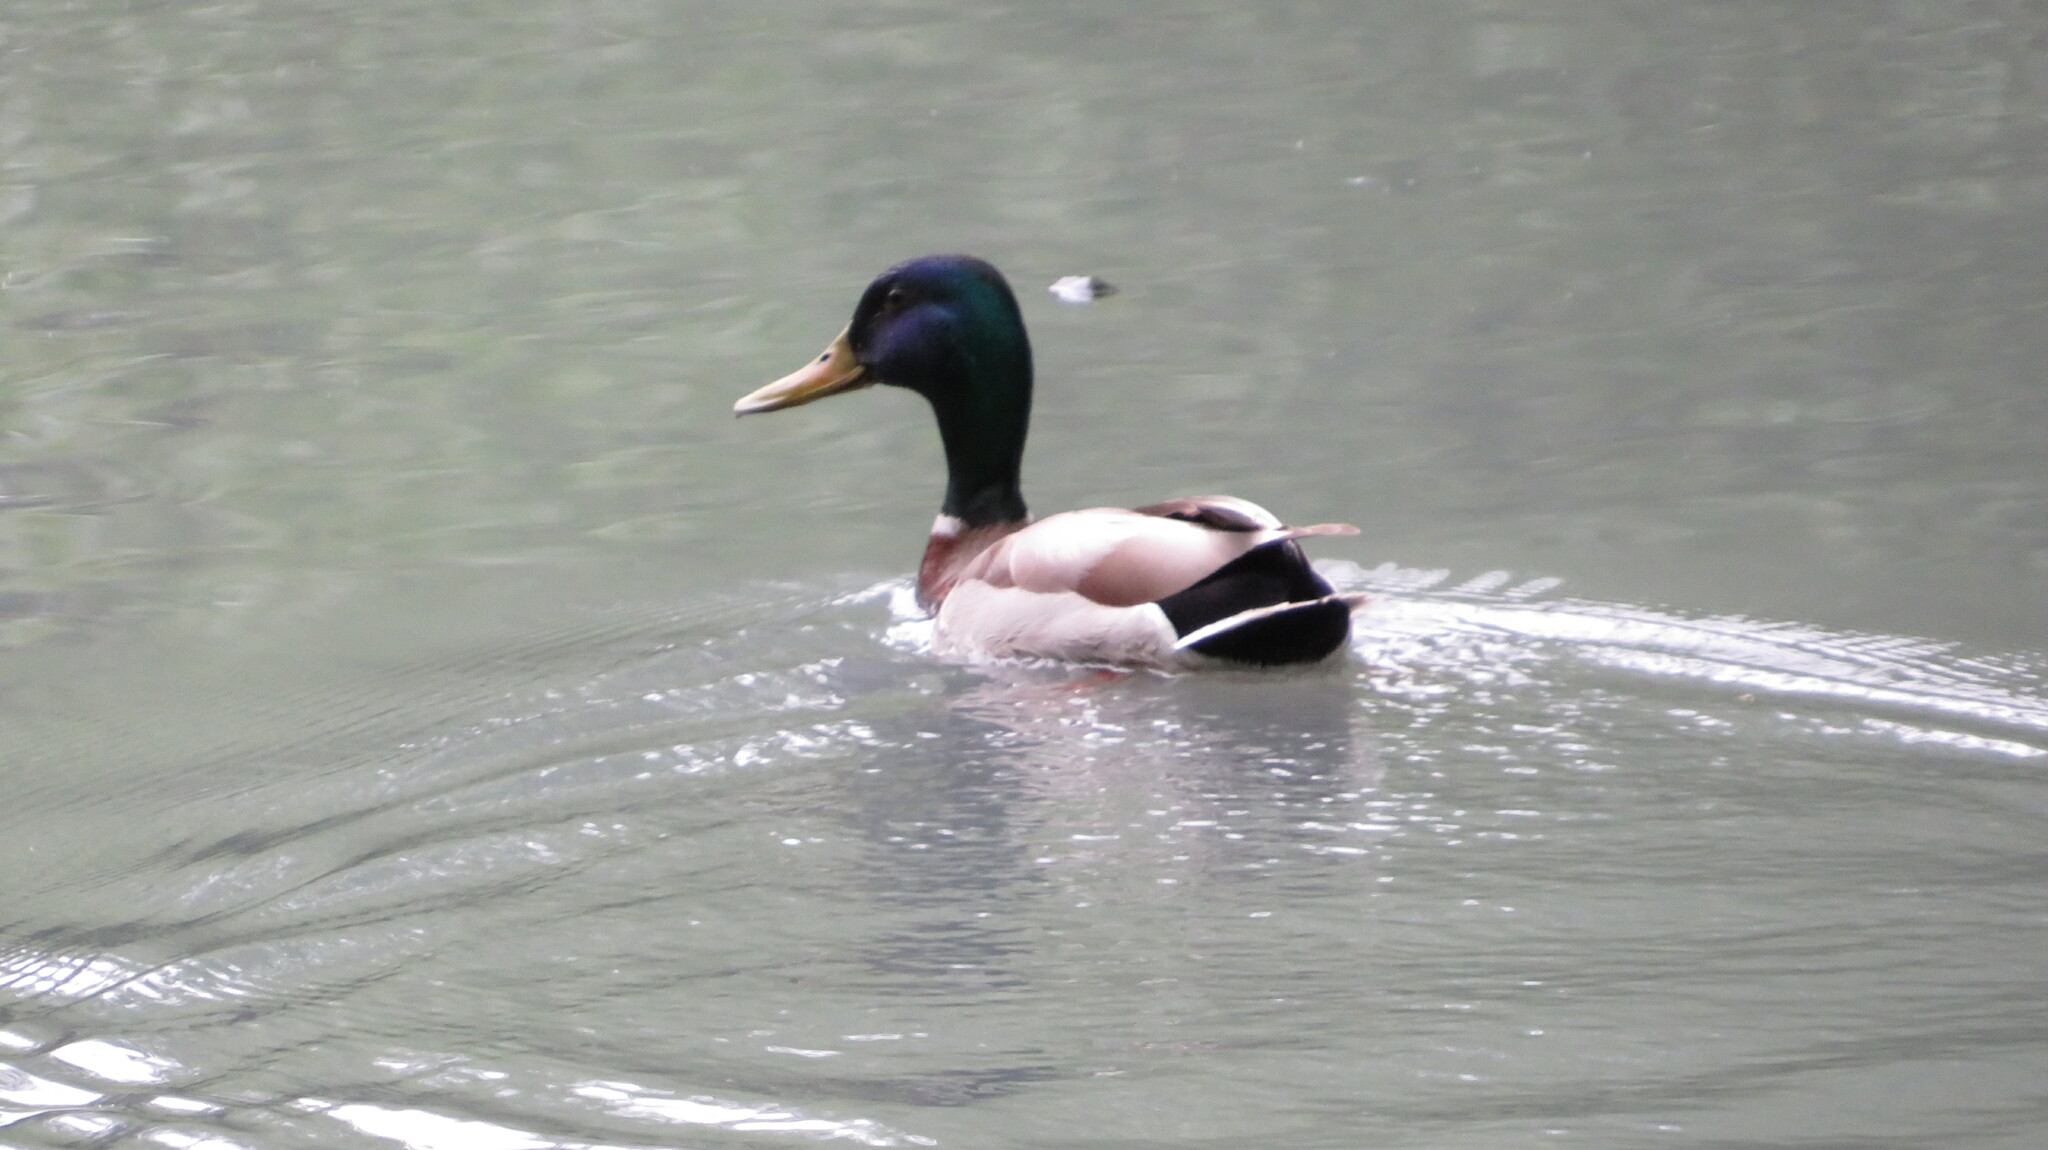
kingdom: Animalia
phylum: Chordata
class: Aves
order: Anseriformes
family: Anatidae
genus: Anas
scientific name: Anas platyrhynchos
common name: Mallard
